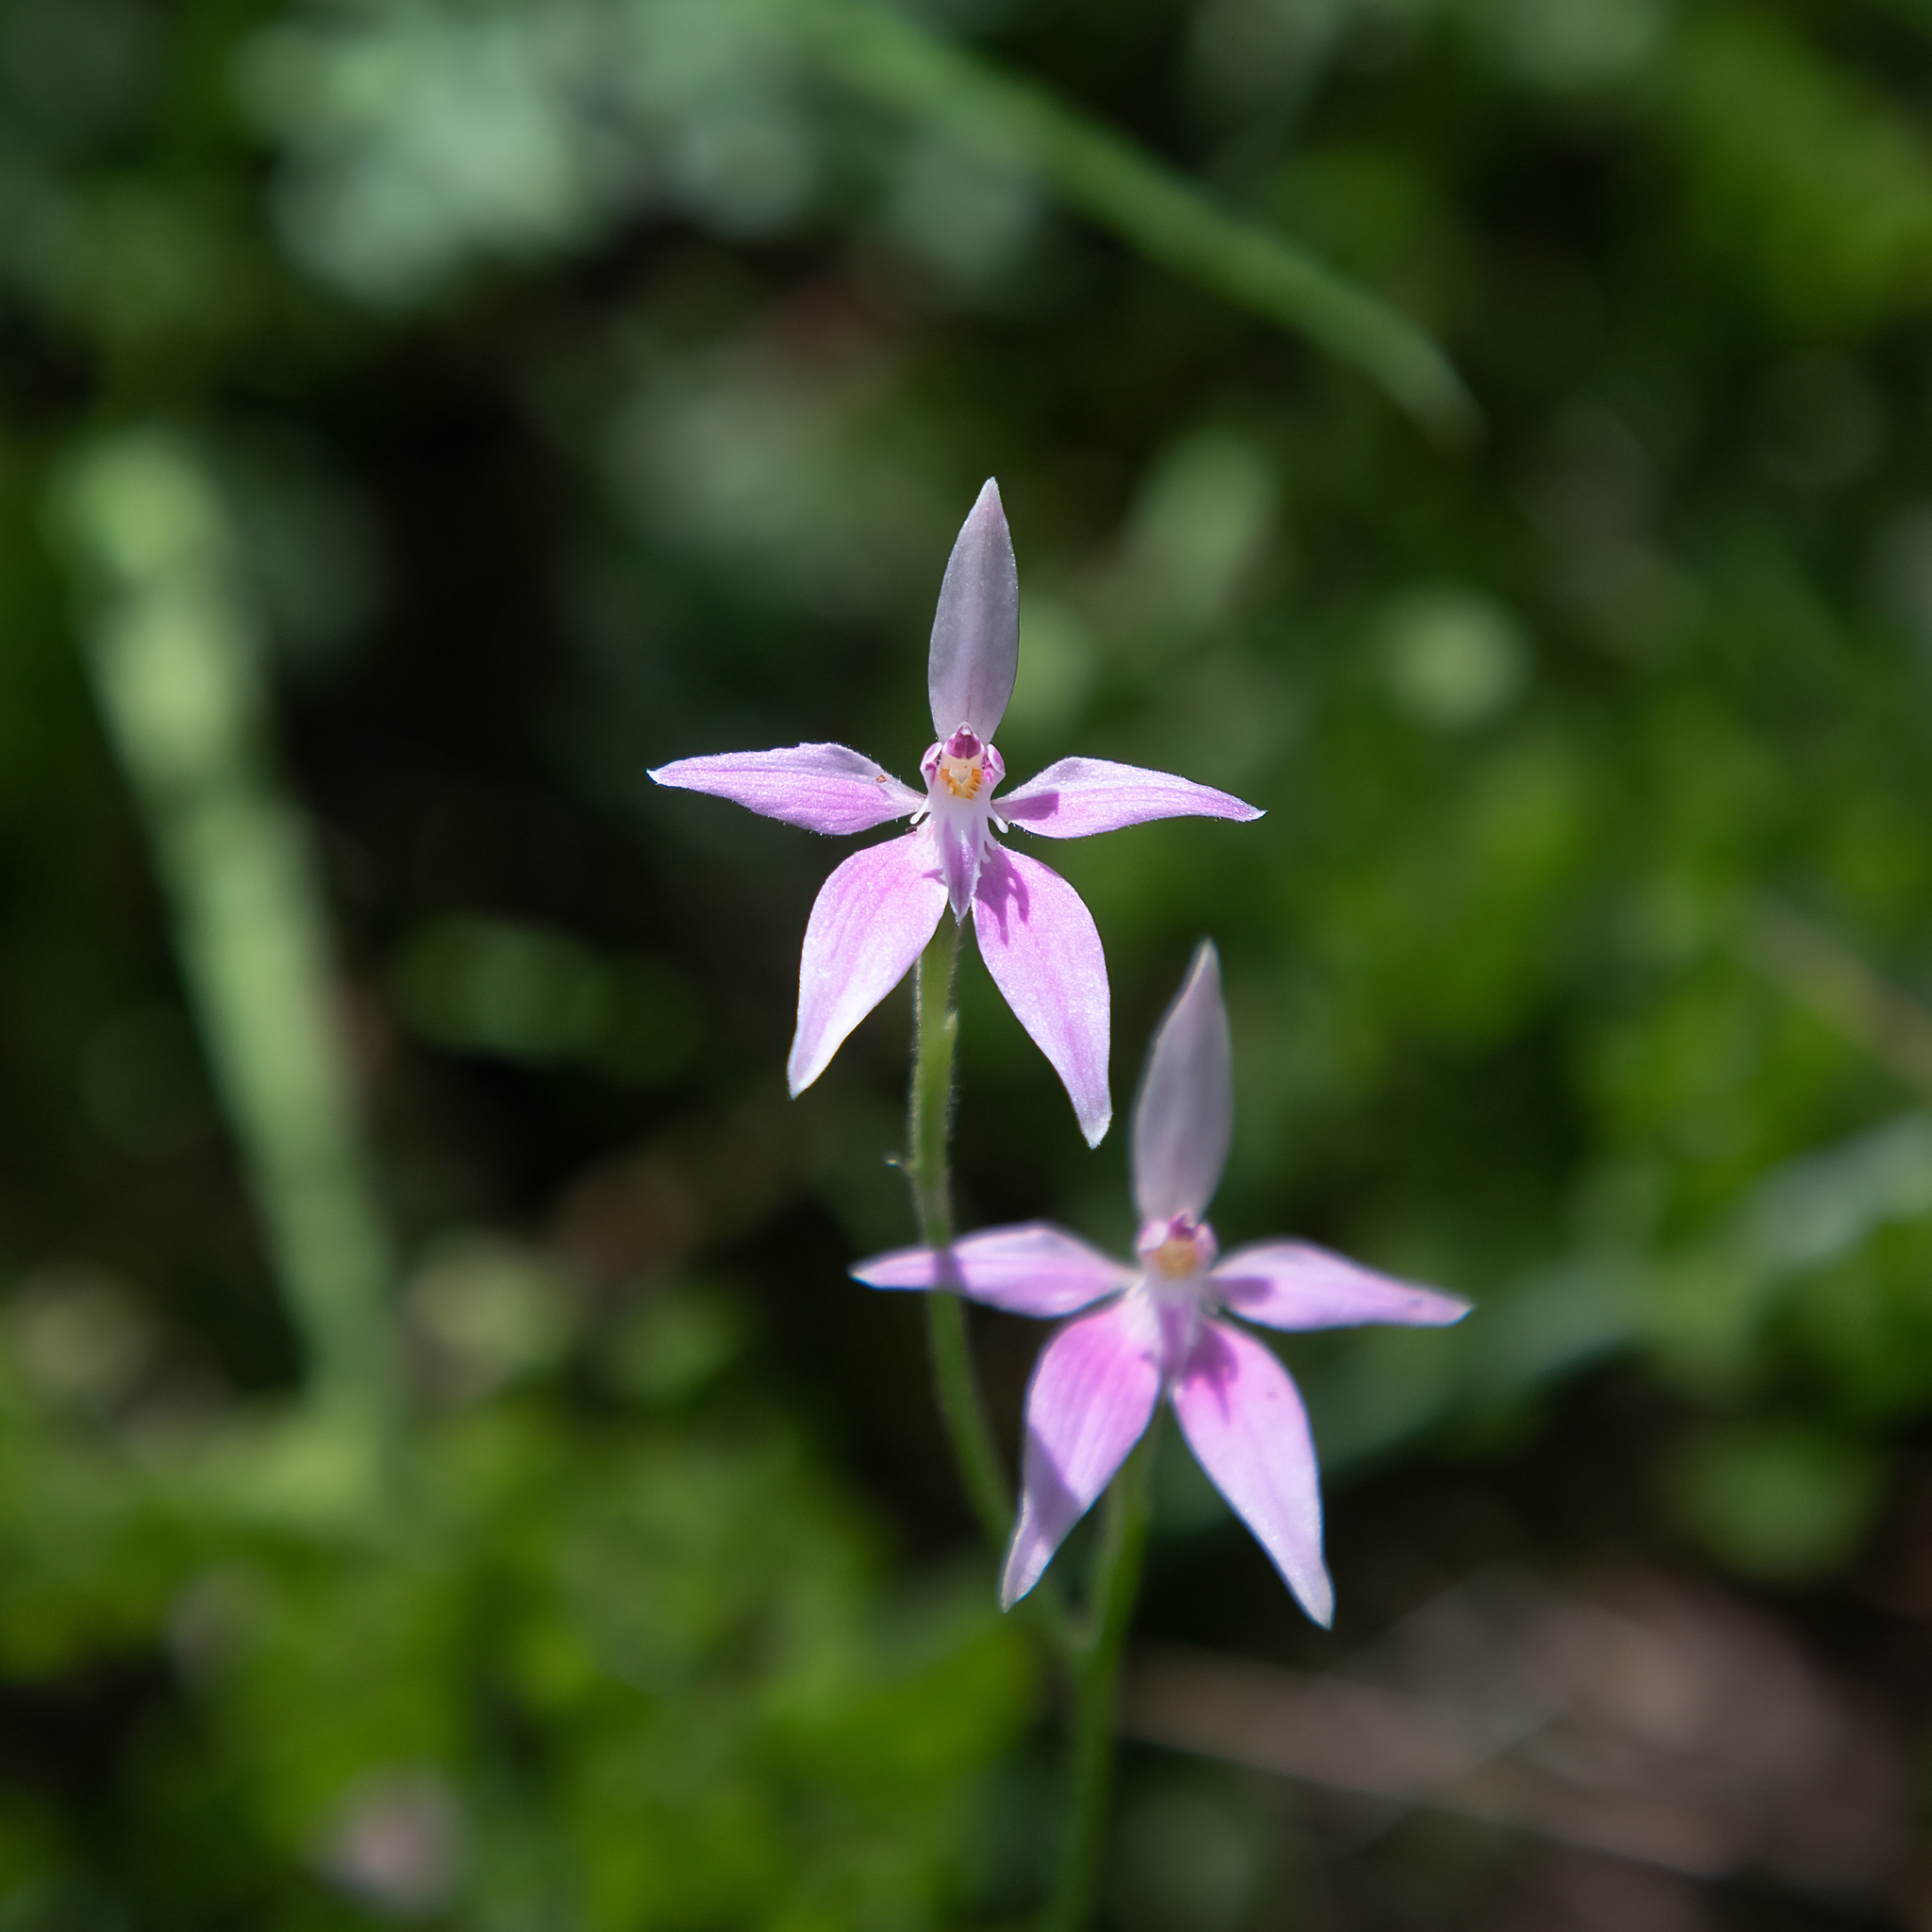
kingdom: Plantae
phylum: Tracheophyta
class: Liliopsida
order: Asparagales
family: Orchidaceae
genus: Caladenia
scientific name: Caladenia latifolia
